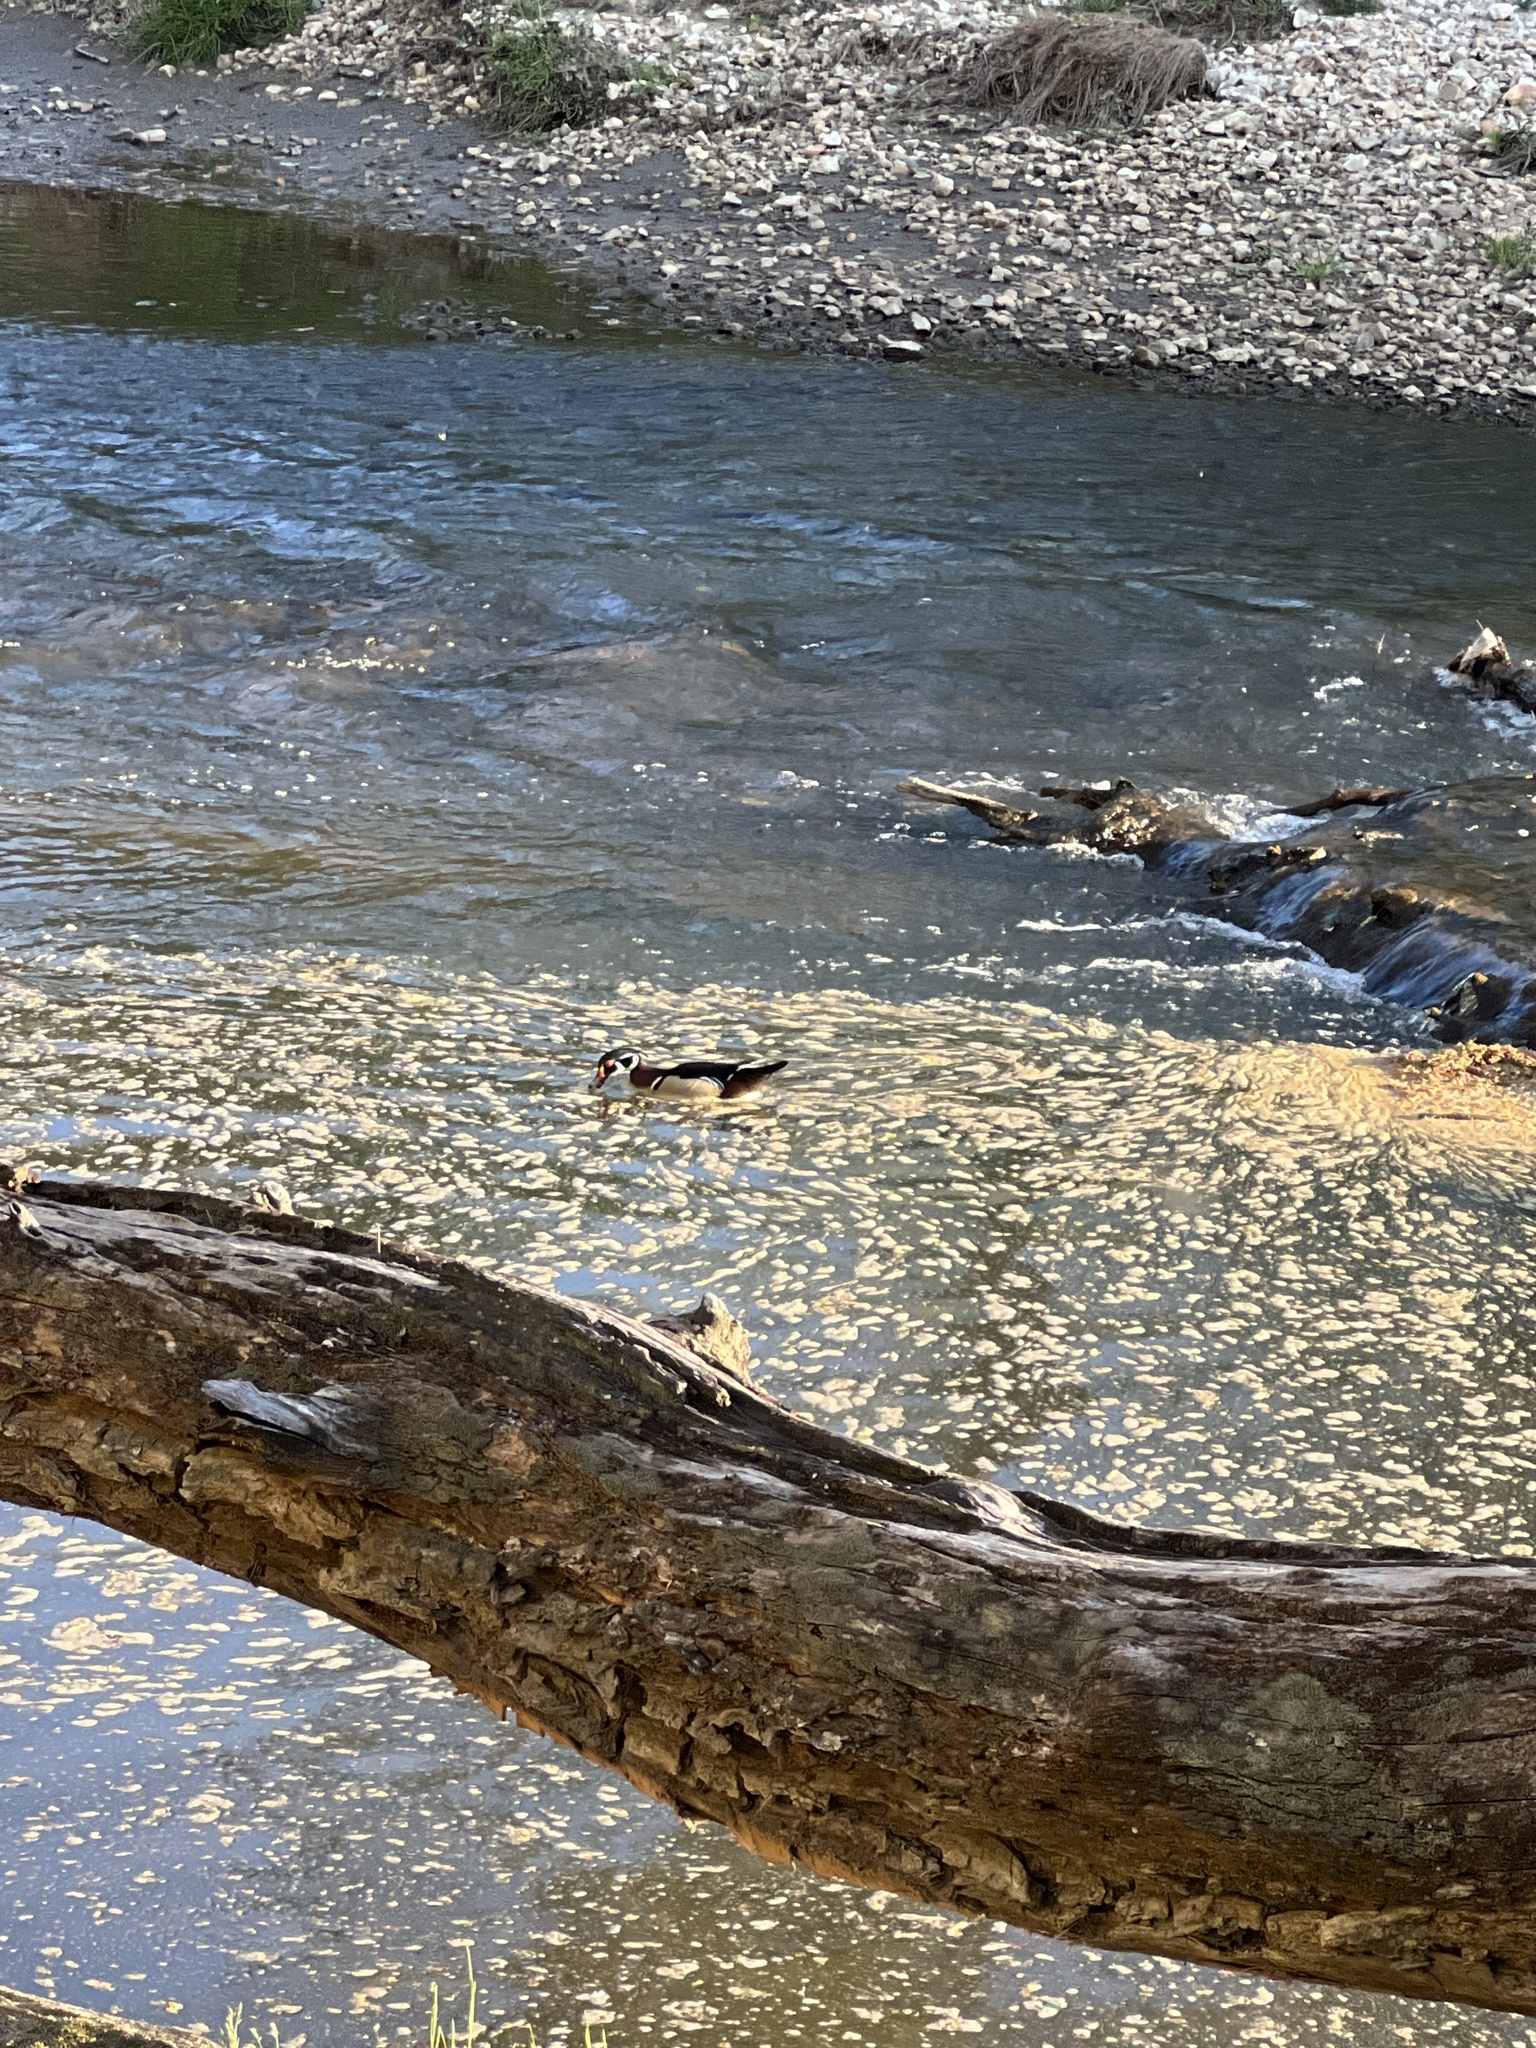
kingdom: Animalia
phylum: Chordata
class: Aves
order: Anseriformes
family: Anatidae
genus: Aix
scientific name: Aix sponsa
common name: Wood duck
